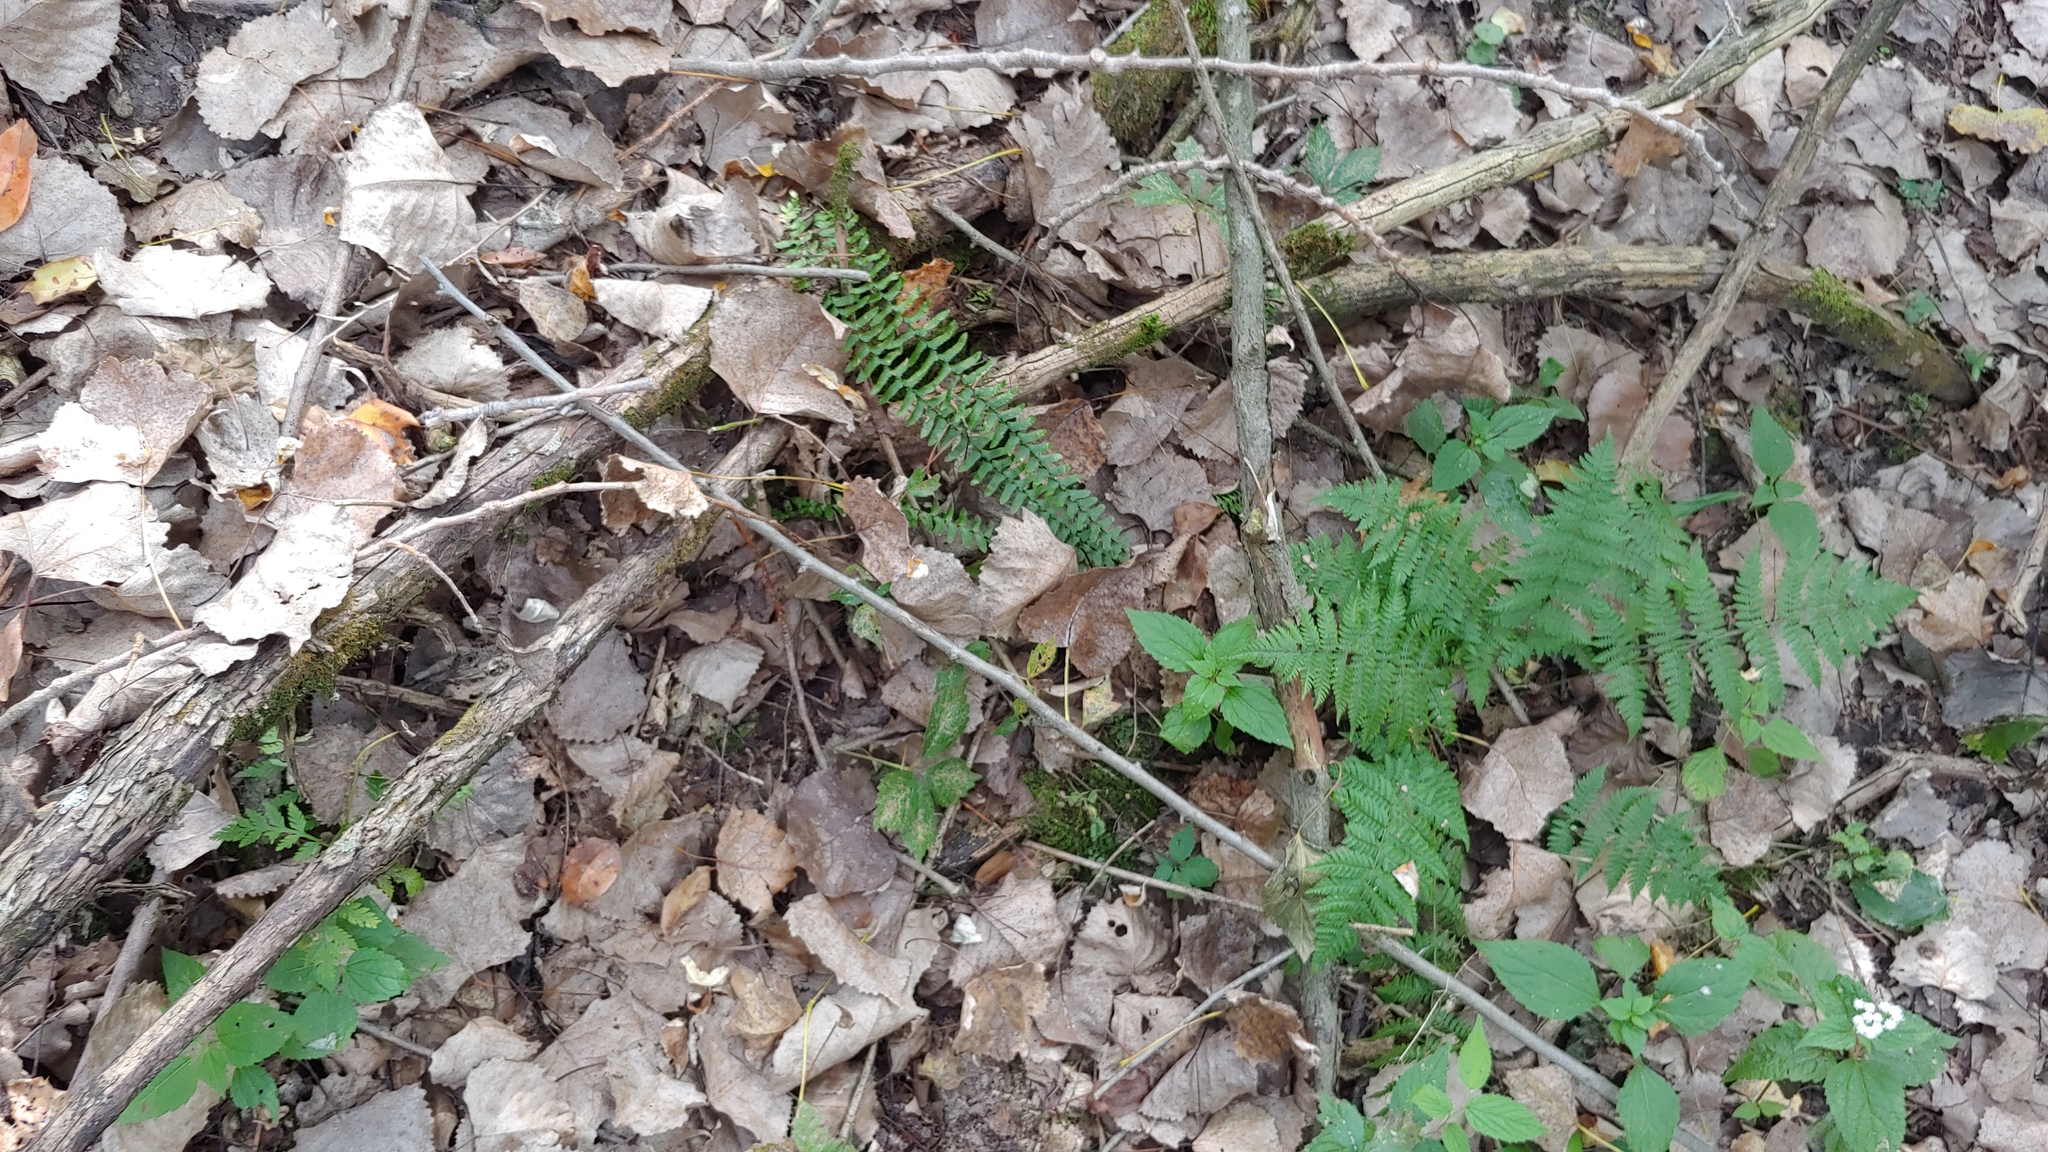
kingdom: Plantae
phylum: Tracheophyta
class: Polypodiopsida
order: Polypodiales
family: Aspleniaceae
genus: Asplenium
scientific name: Asplenium platyneuron
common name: Ebony spleenwort
